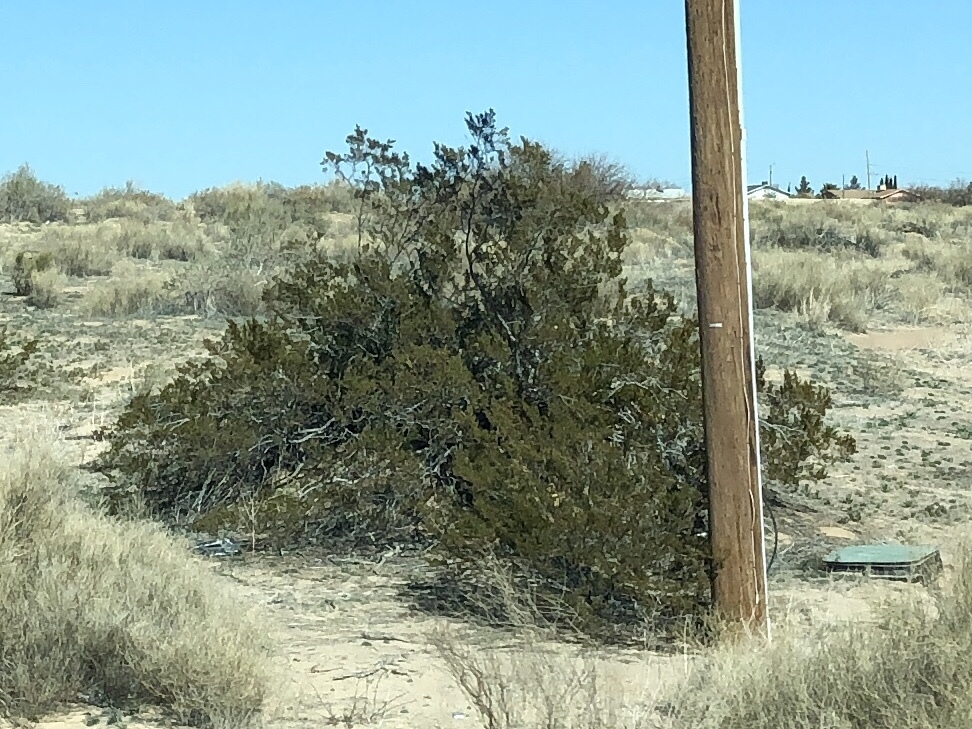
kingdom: Plantae
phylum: Tracheophyta
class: Magnoliopsida
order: Zygophyllales
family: Zygophyllaceae
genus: Larrea
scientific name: Larrea tridentata
